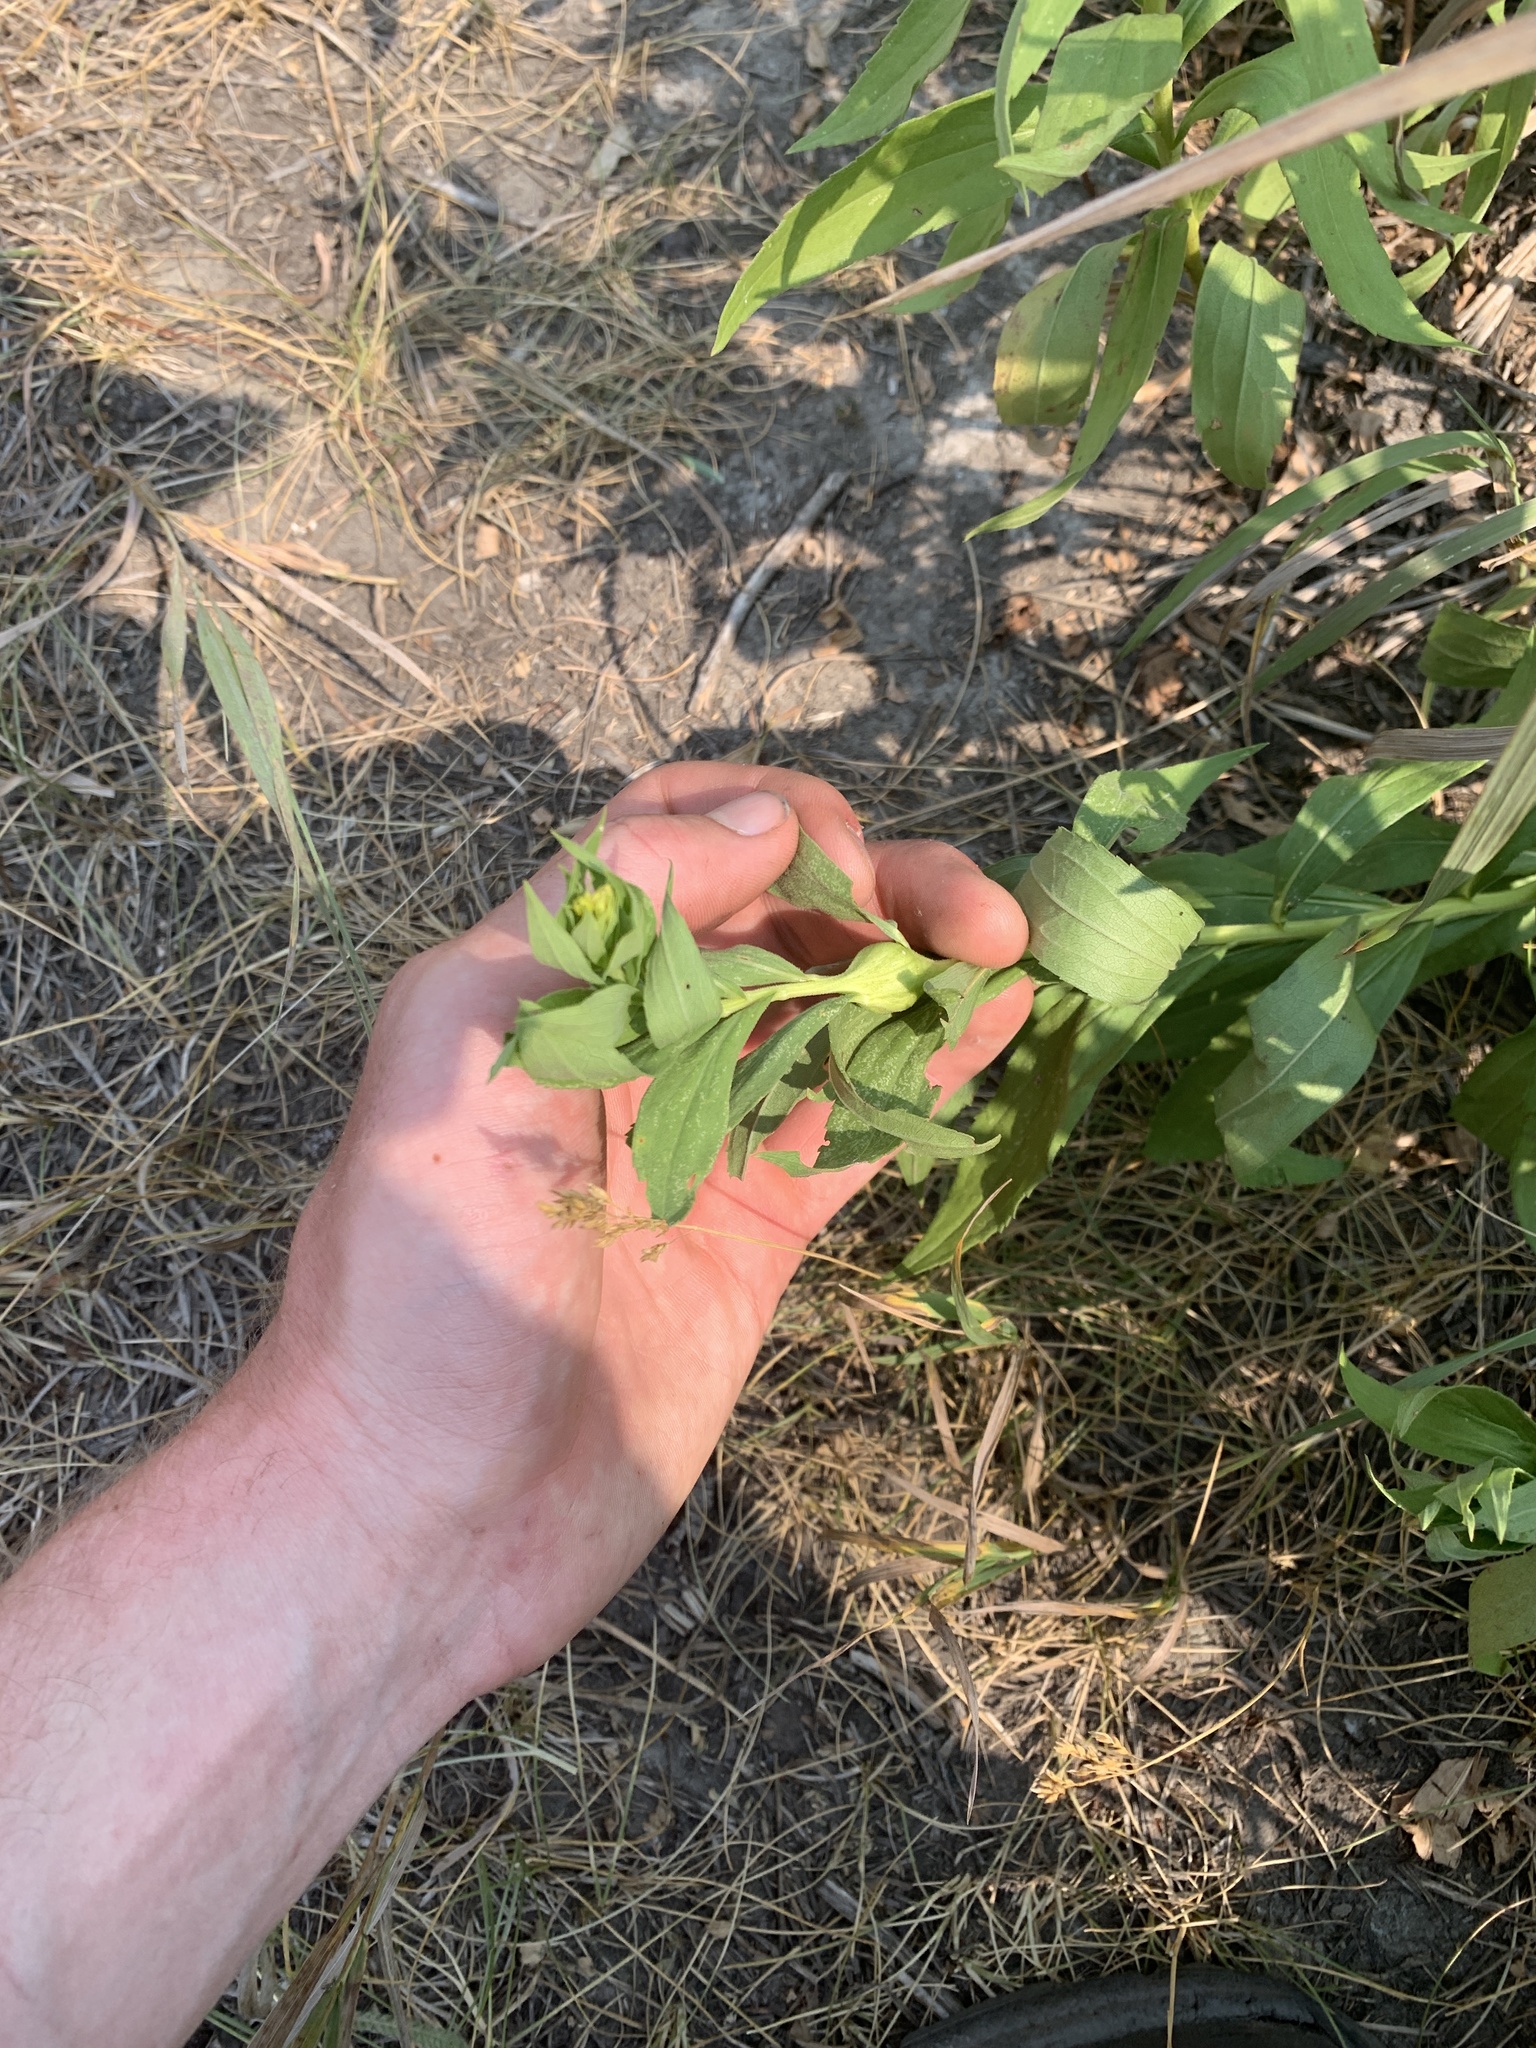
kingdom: Animalia
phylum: Arthropoda
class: Insecta
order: Diptera
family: Tephritidae
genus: Eurosta
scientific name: Eurosta solidaginis
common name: Goldenrod gall fly
